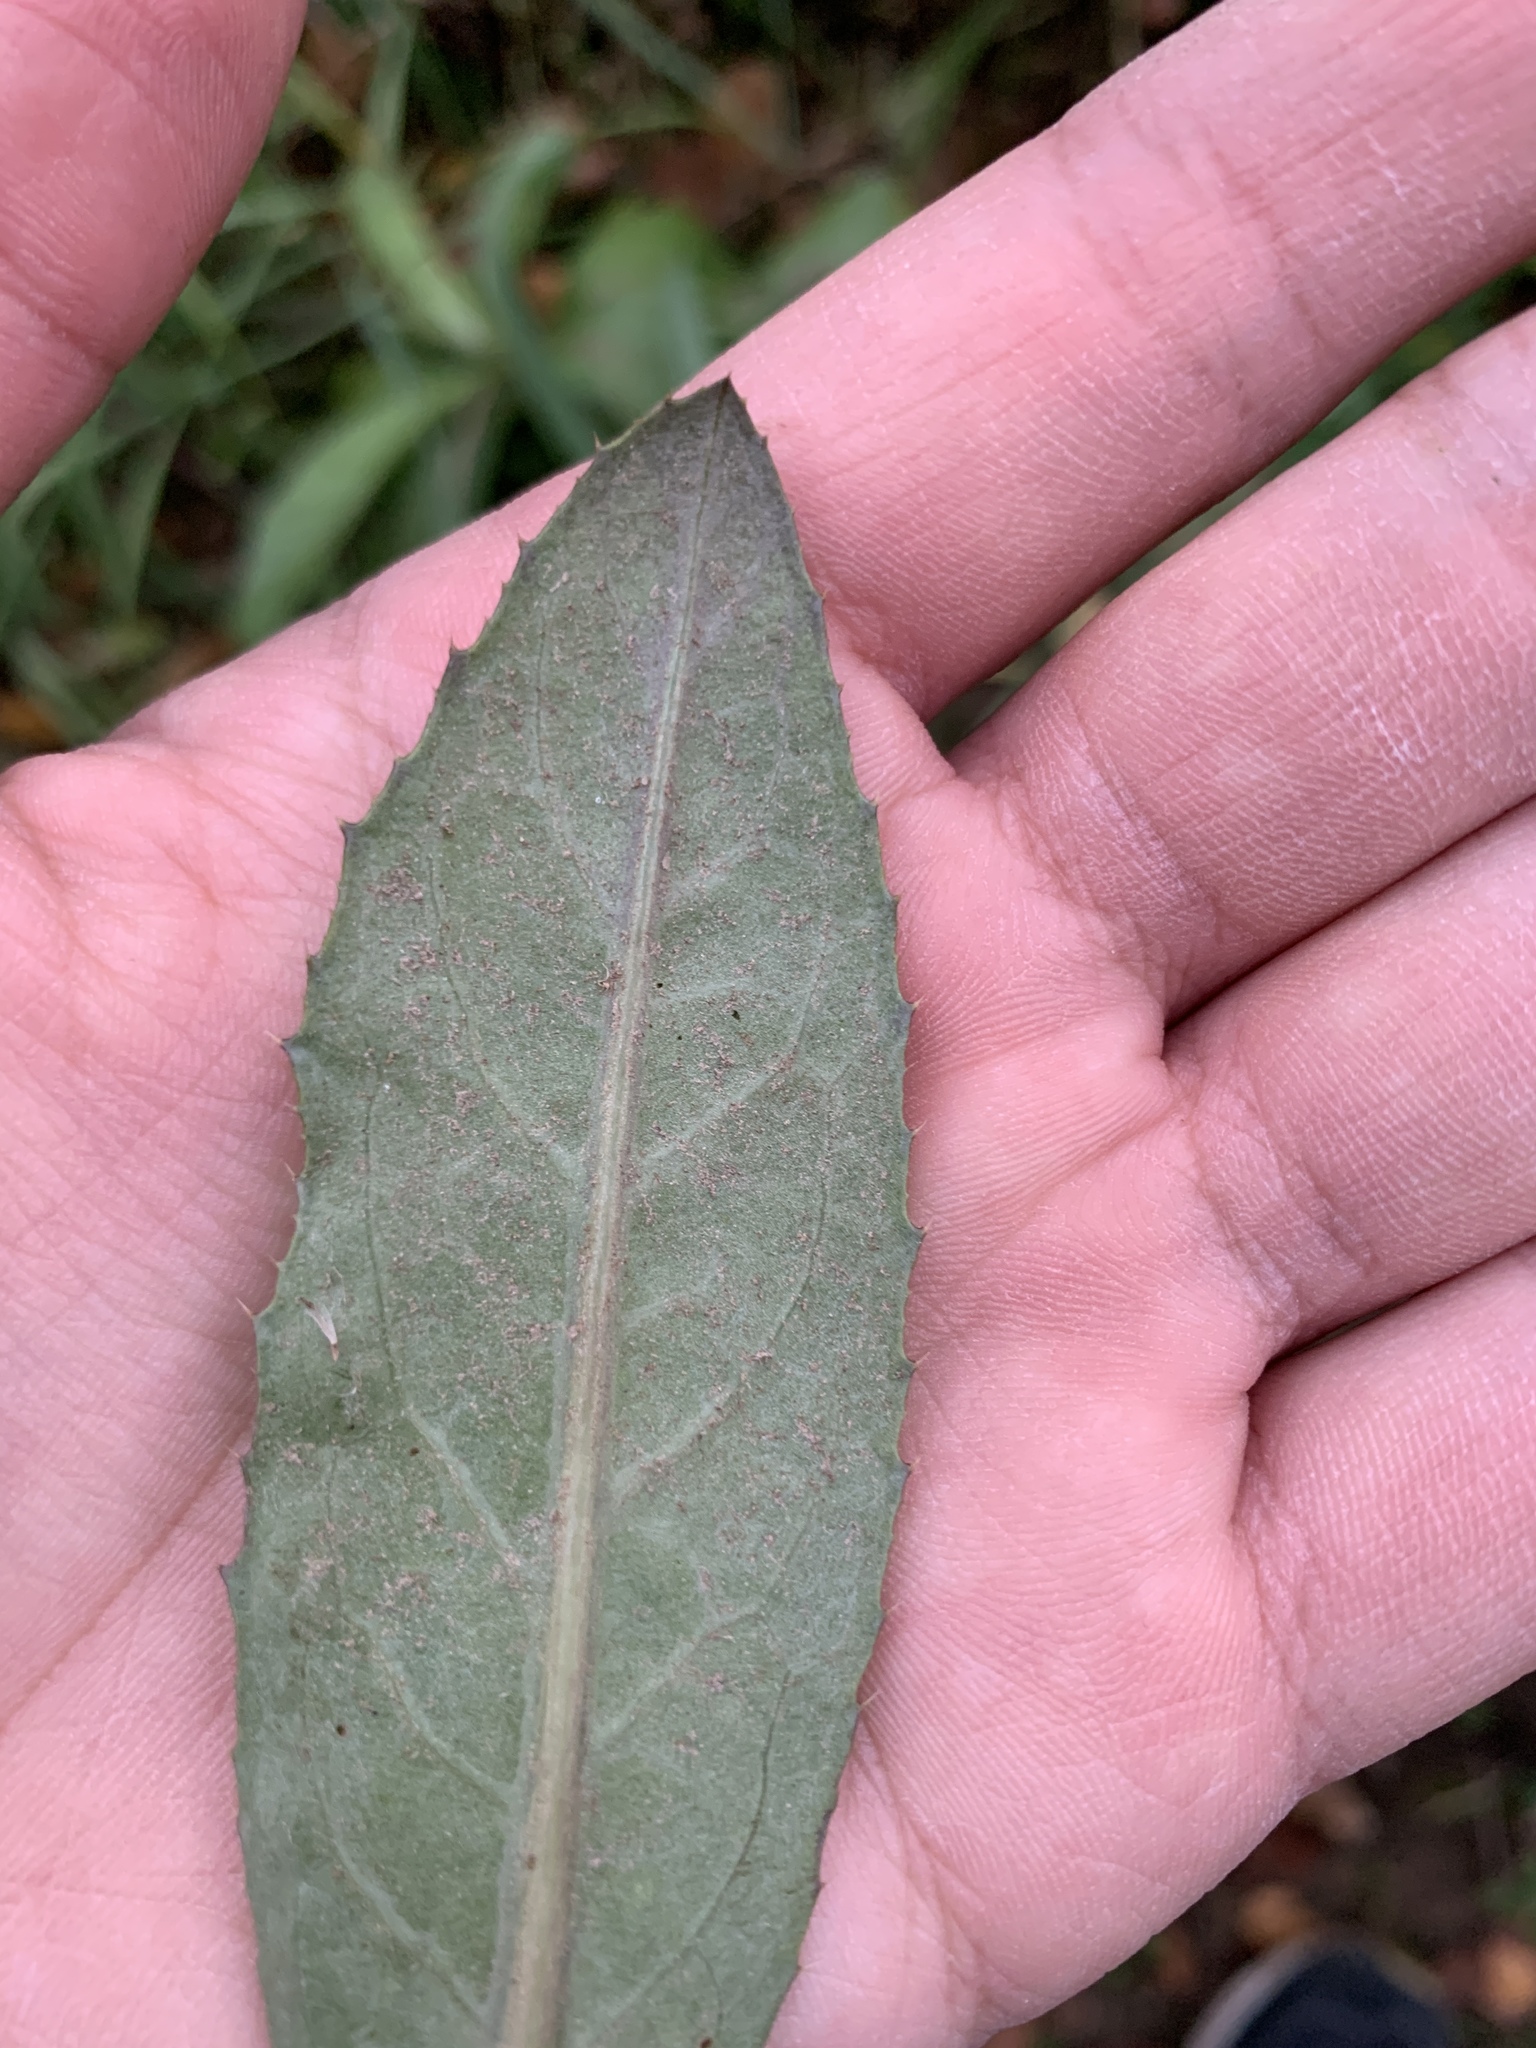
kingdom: Plantae
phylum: Tracheophyta
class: Magnoliopsida
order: Asterales
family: Asteraceae
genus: Cirsium
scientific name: Cirsium arvense
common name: Creeping thistle
